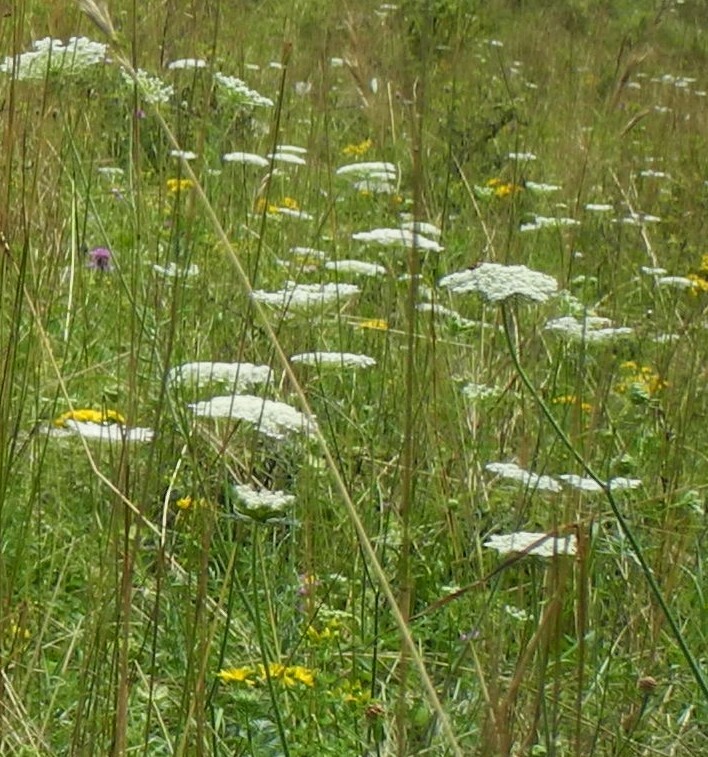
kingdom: Plantae
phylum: Tracheophyta
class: Magnoliopsida
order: Apiales
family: Apiaceae
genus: Daucus
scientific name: Daucus carota
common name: Wild carrot
